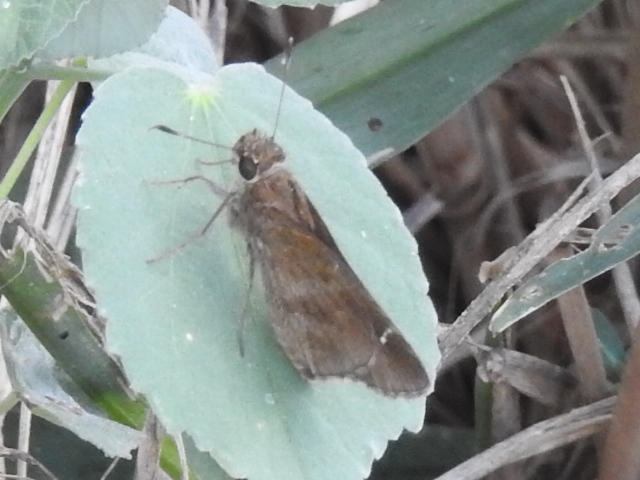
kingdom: Animalia
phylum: Arthropoda
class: Insecta
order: Lepidoptera
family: Hesperiidae
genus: Lerema
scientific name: Lerema accius
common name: Clouded skipper
